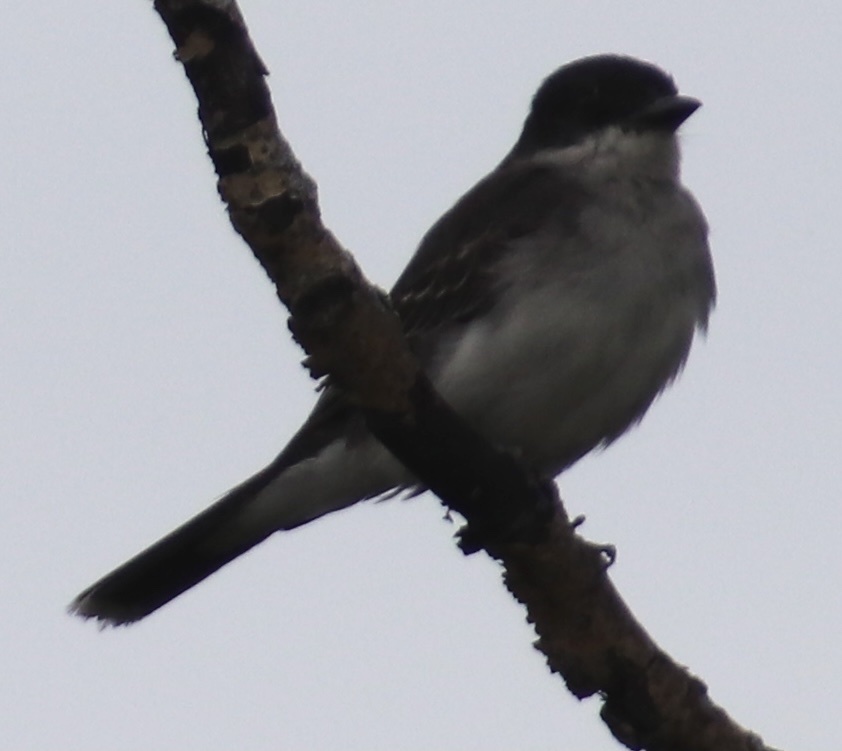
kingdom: Animalia
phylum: Chordata
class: Aves
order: Passeriformes
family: Tyrannidae
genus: Tyrannus
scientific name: Tyrannus tyrannus
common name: Eastern kingbird
